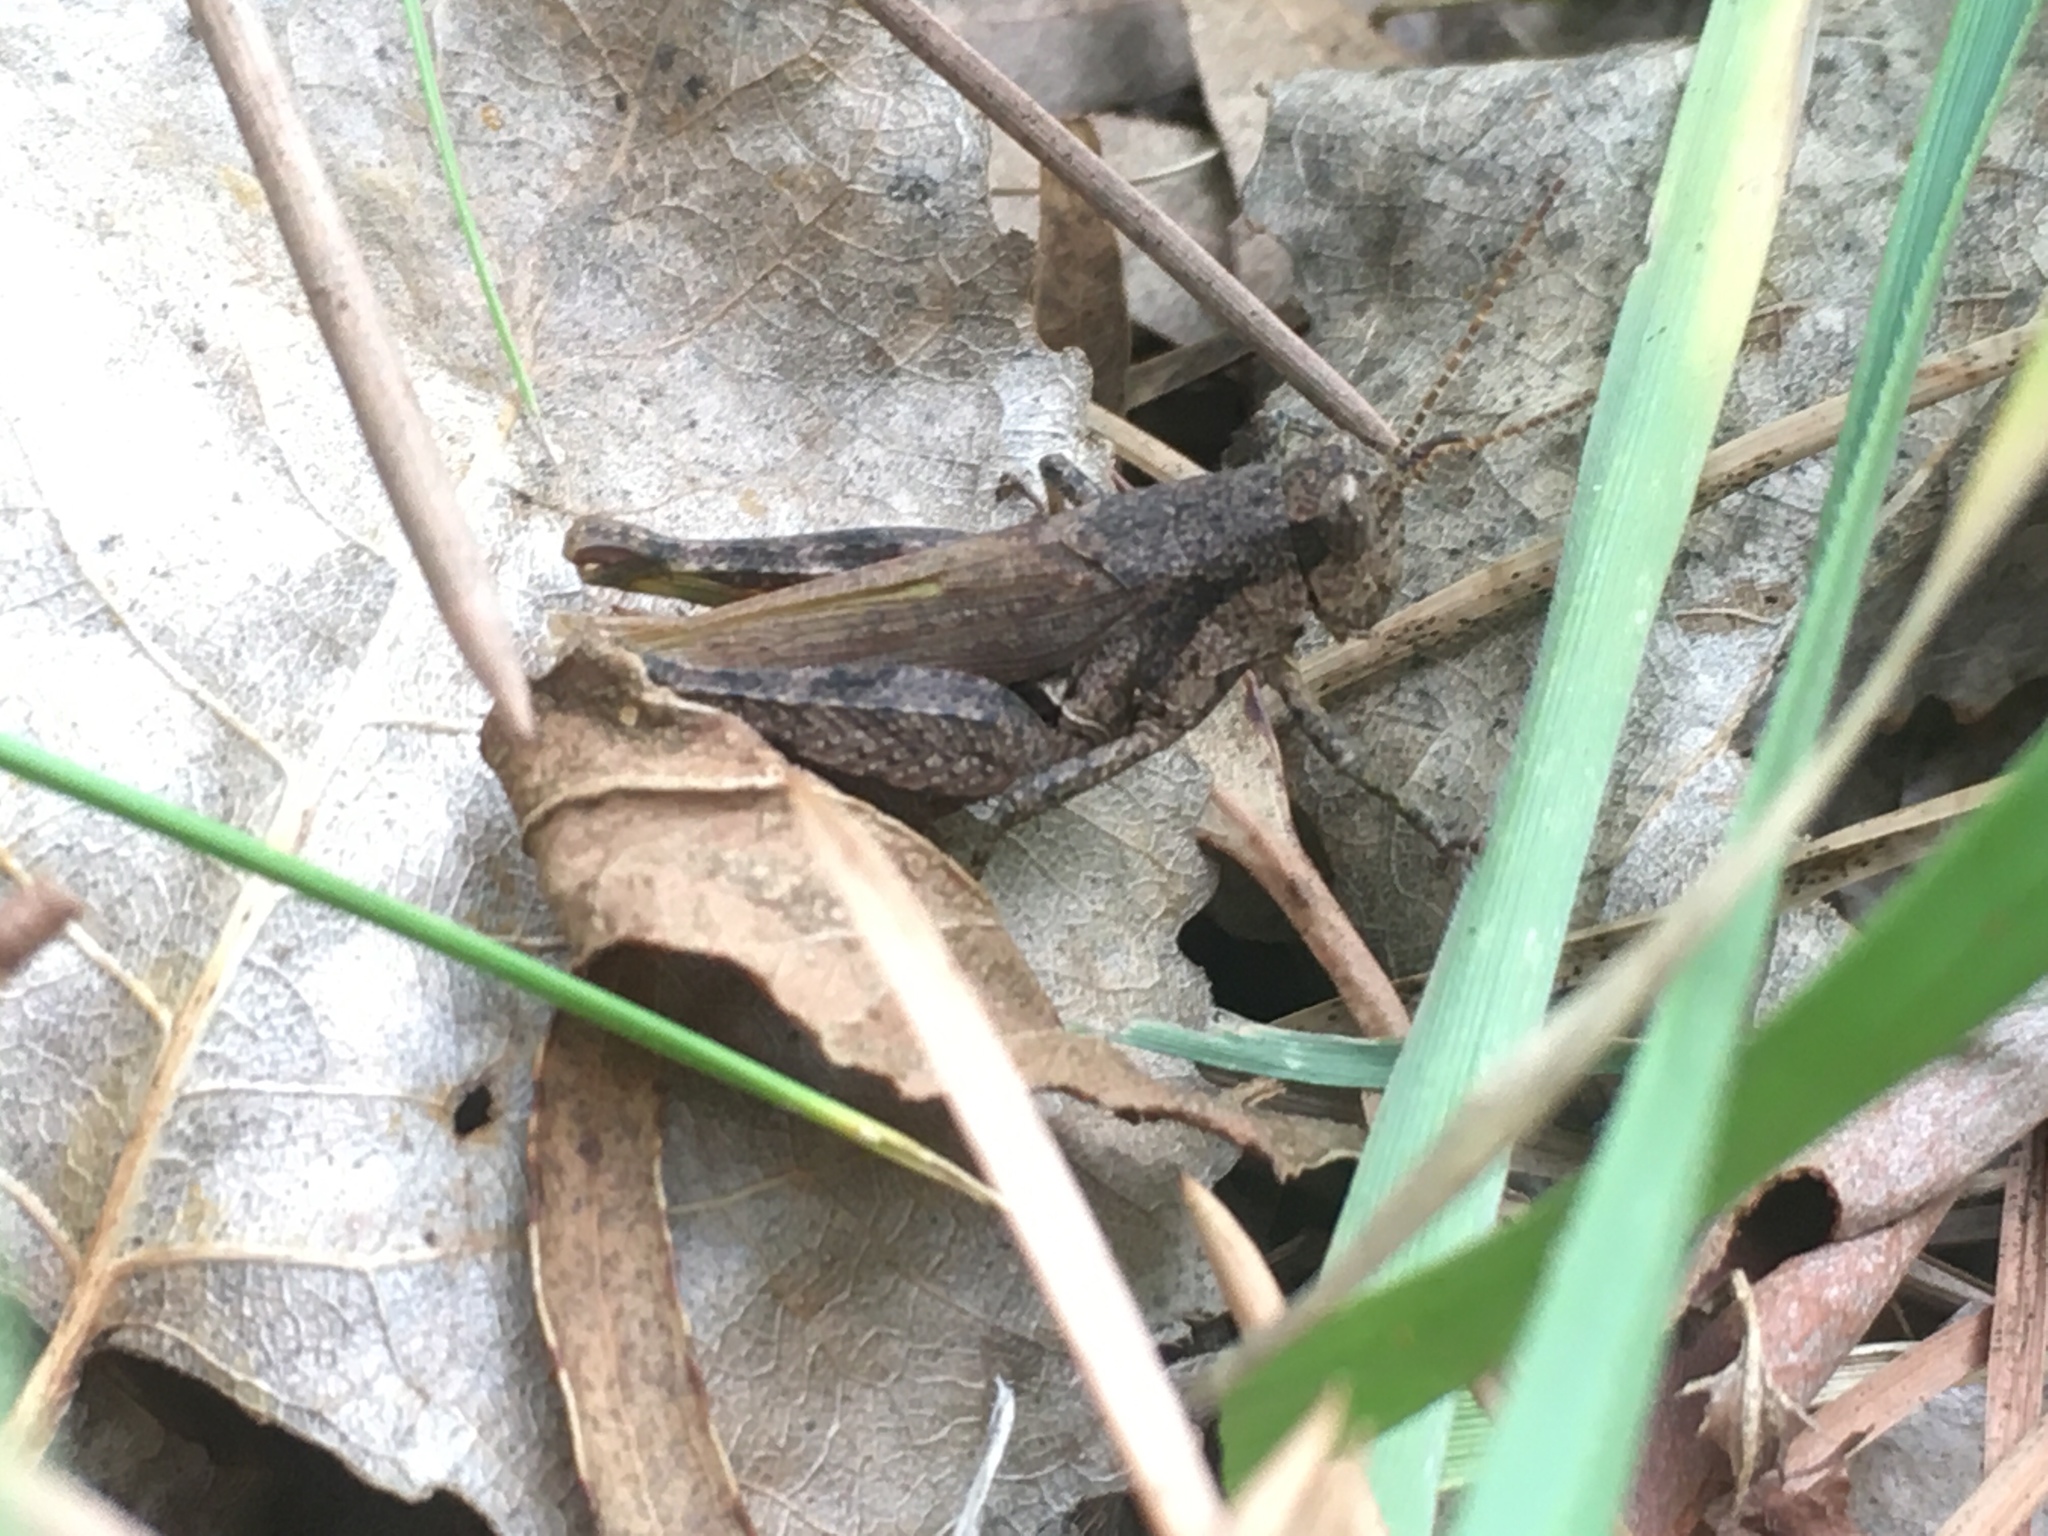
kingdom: Animalia
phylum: Arthropoda
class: Insecta
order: Orthoptera
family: Acrididae
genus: Ronderosia
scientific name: Ronderosia bergii
